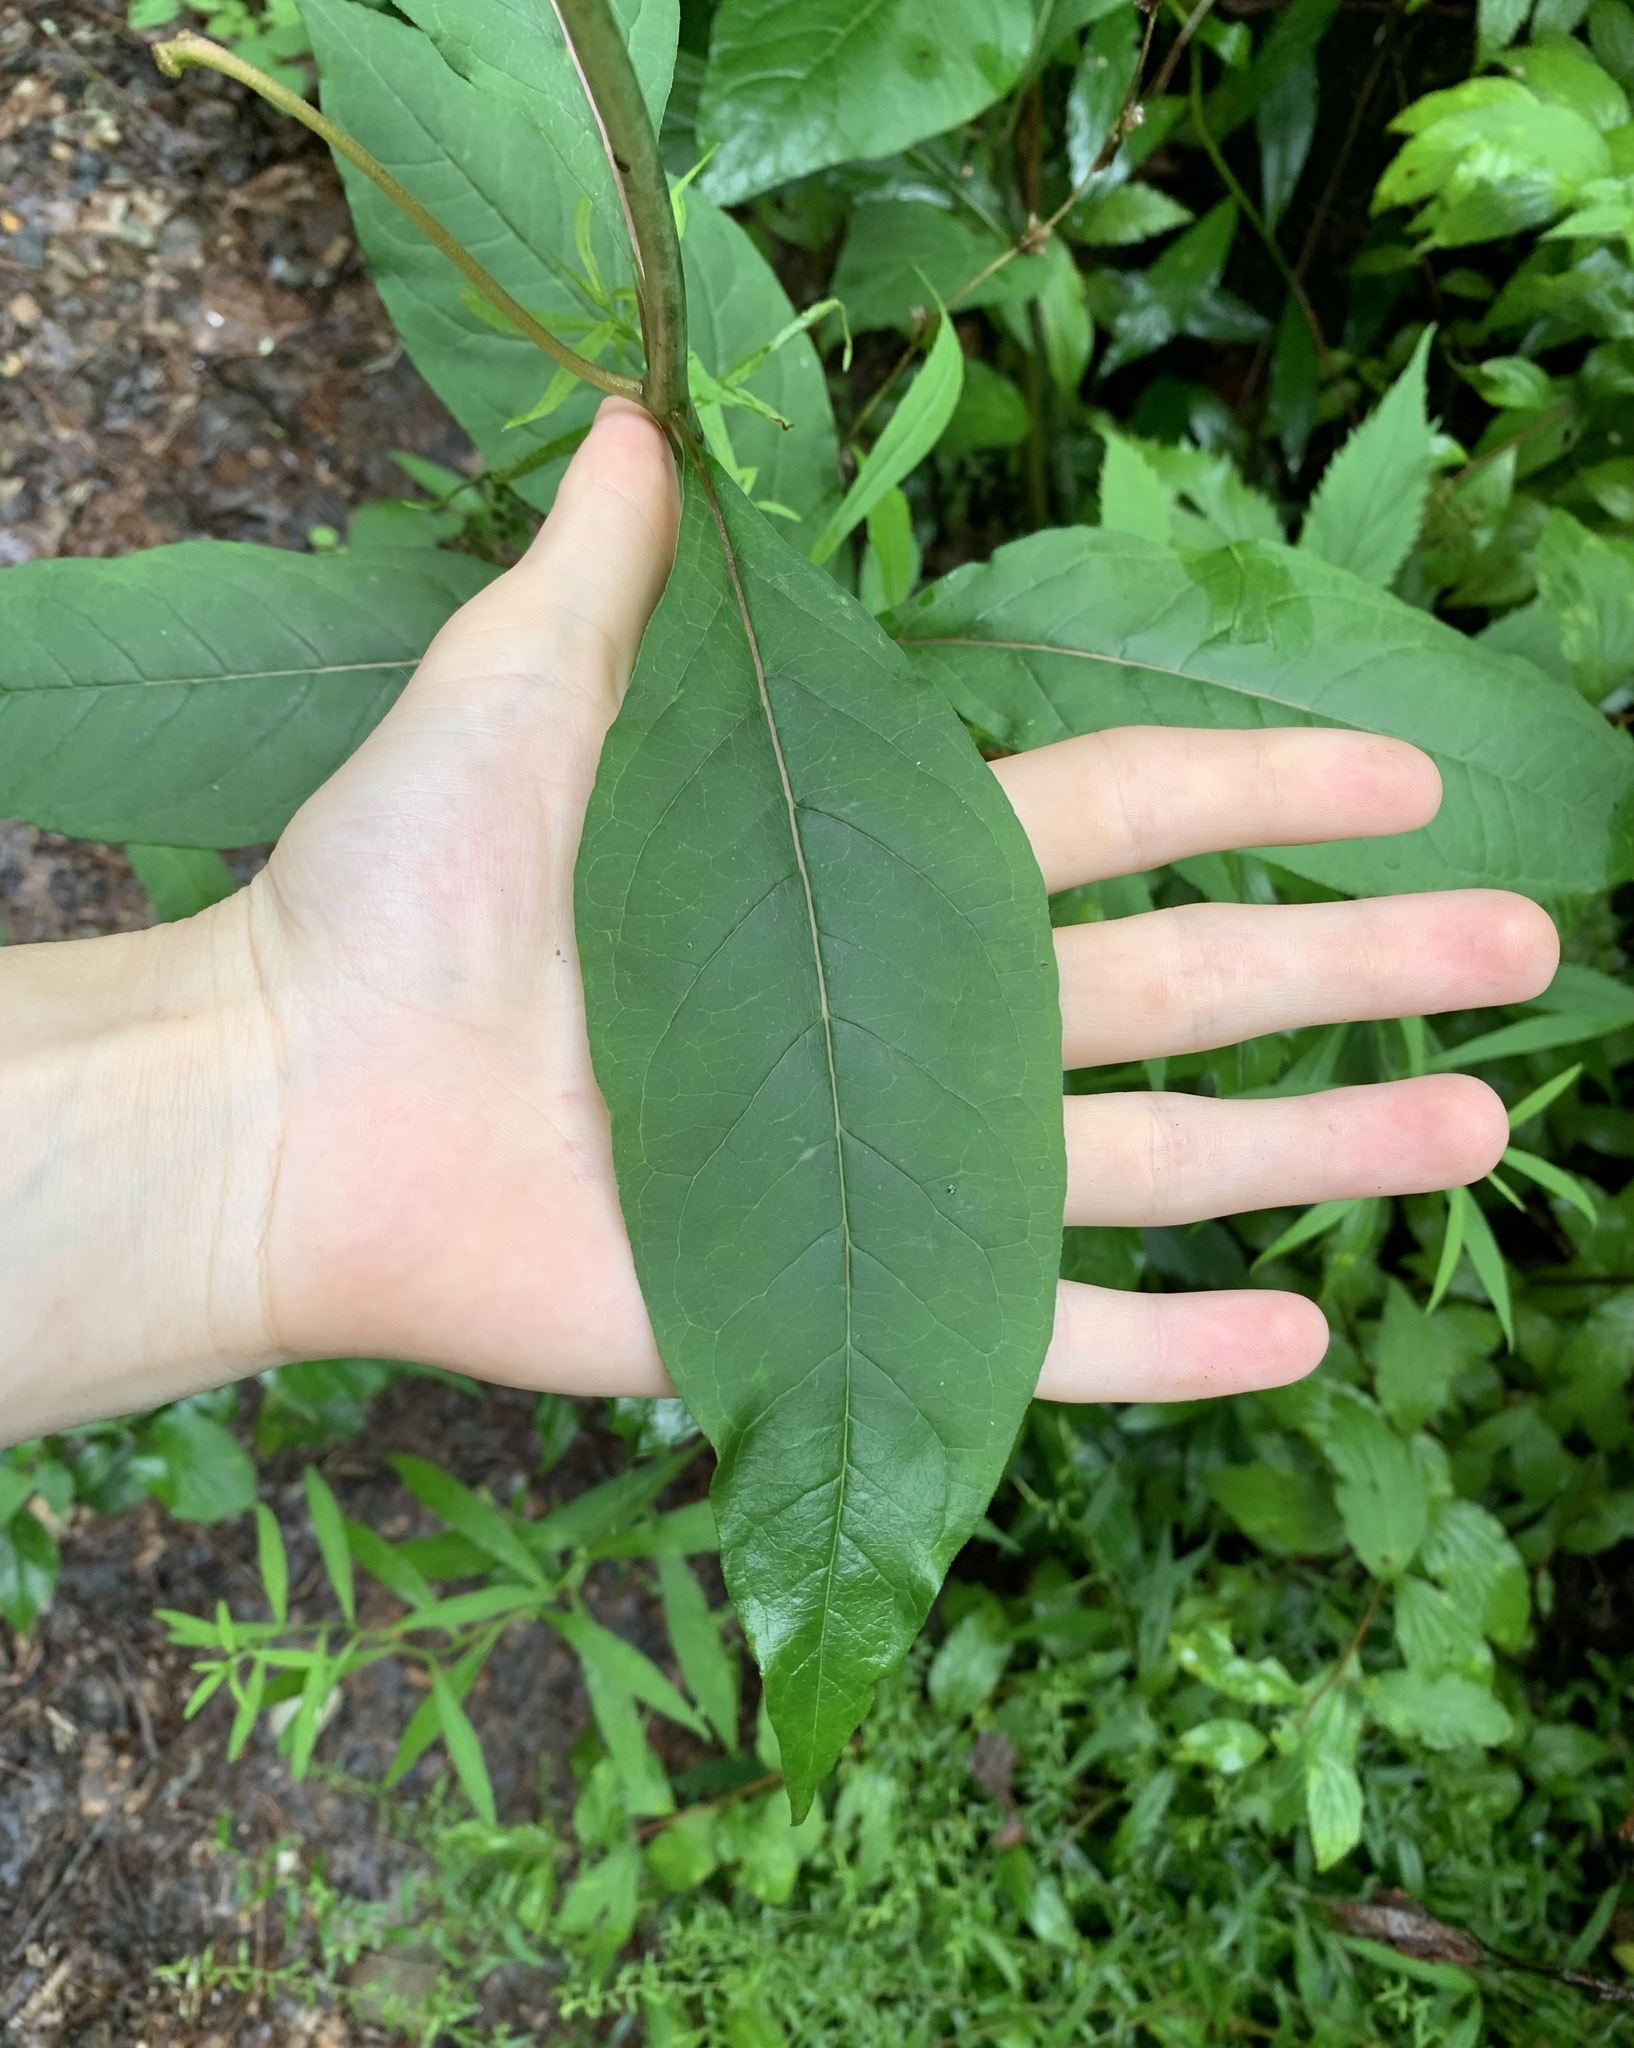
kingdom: Plantae
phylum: Tracheophyta
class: Magnoliopsida
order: Gentianales
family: Apocynaceae
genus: Asclepias
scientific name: Asclepias exaltata
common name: Poke milkweed
